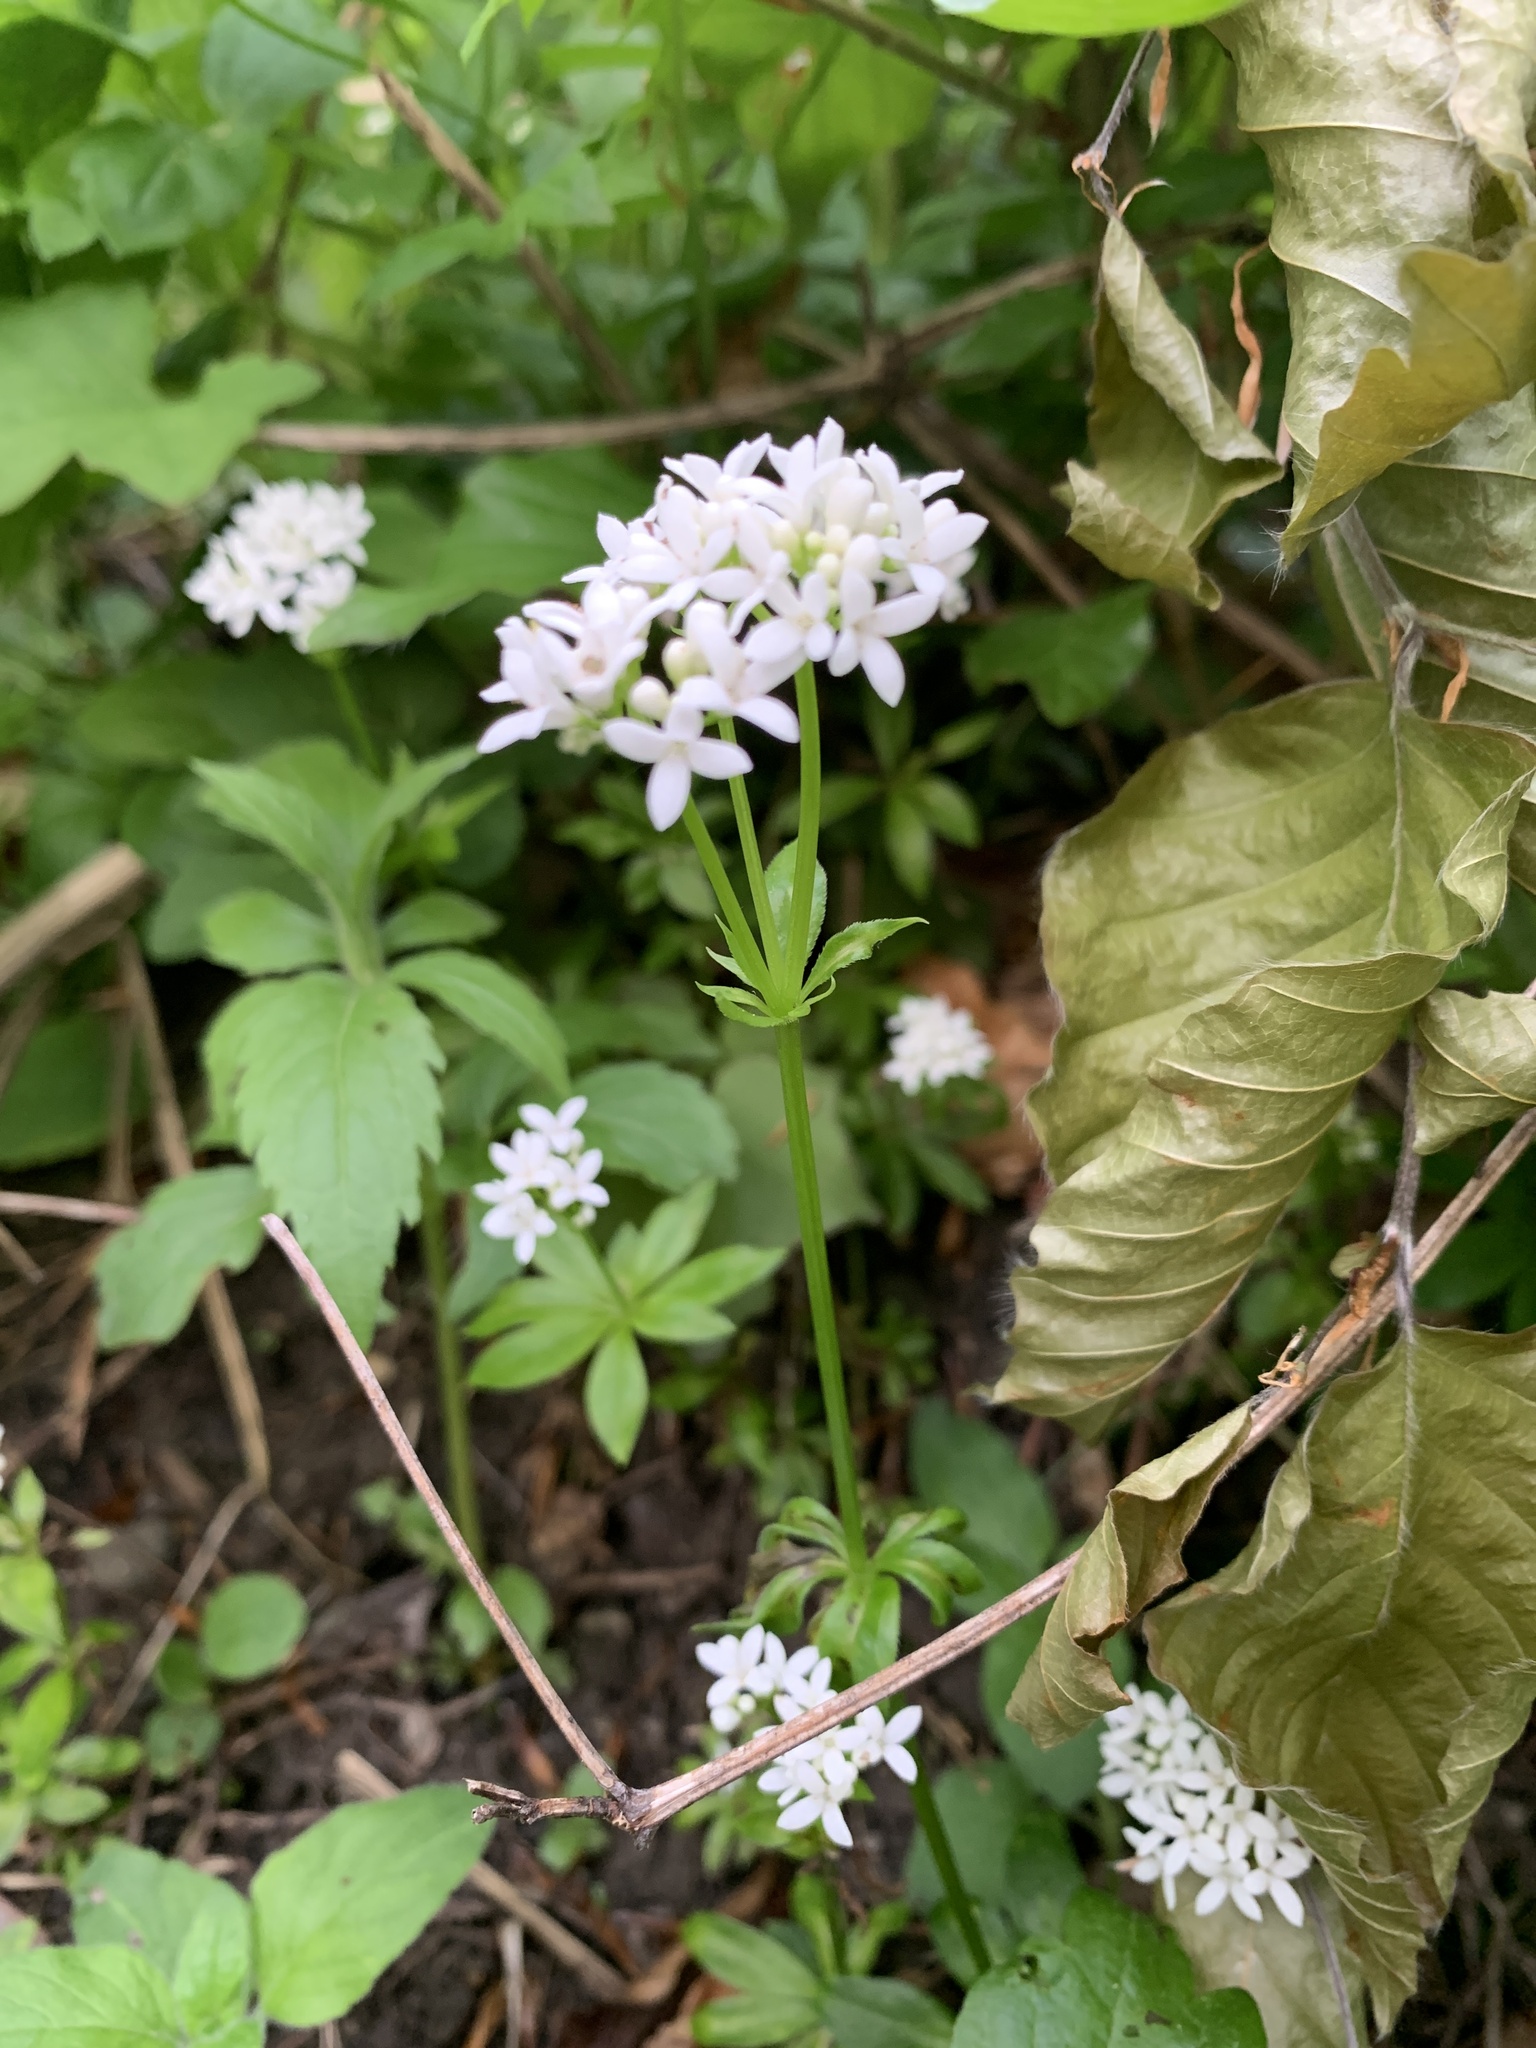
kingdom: Plantae
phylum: Tracheophyta
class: Magnoliopsida
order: Gentianales
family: Rubiaceae
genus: Galium
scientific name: Galium odoratum
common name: Sweet woodruff
